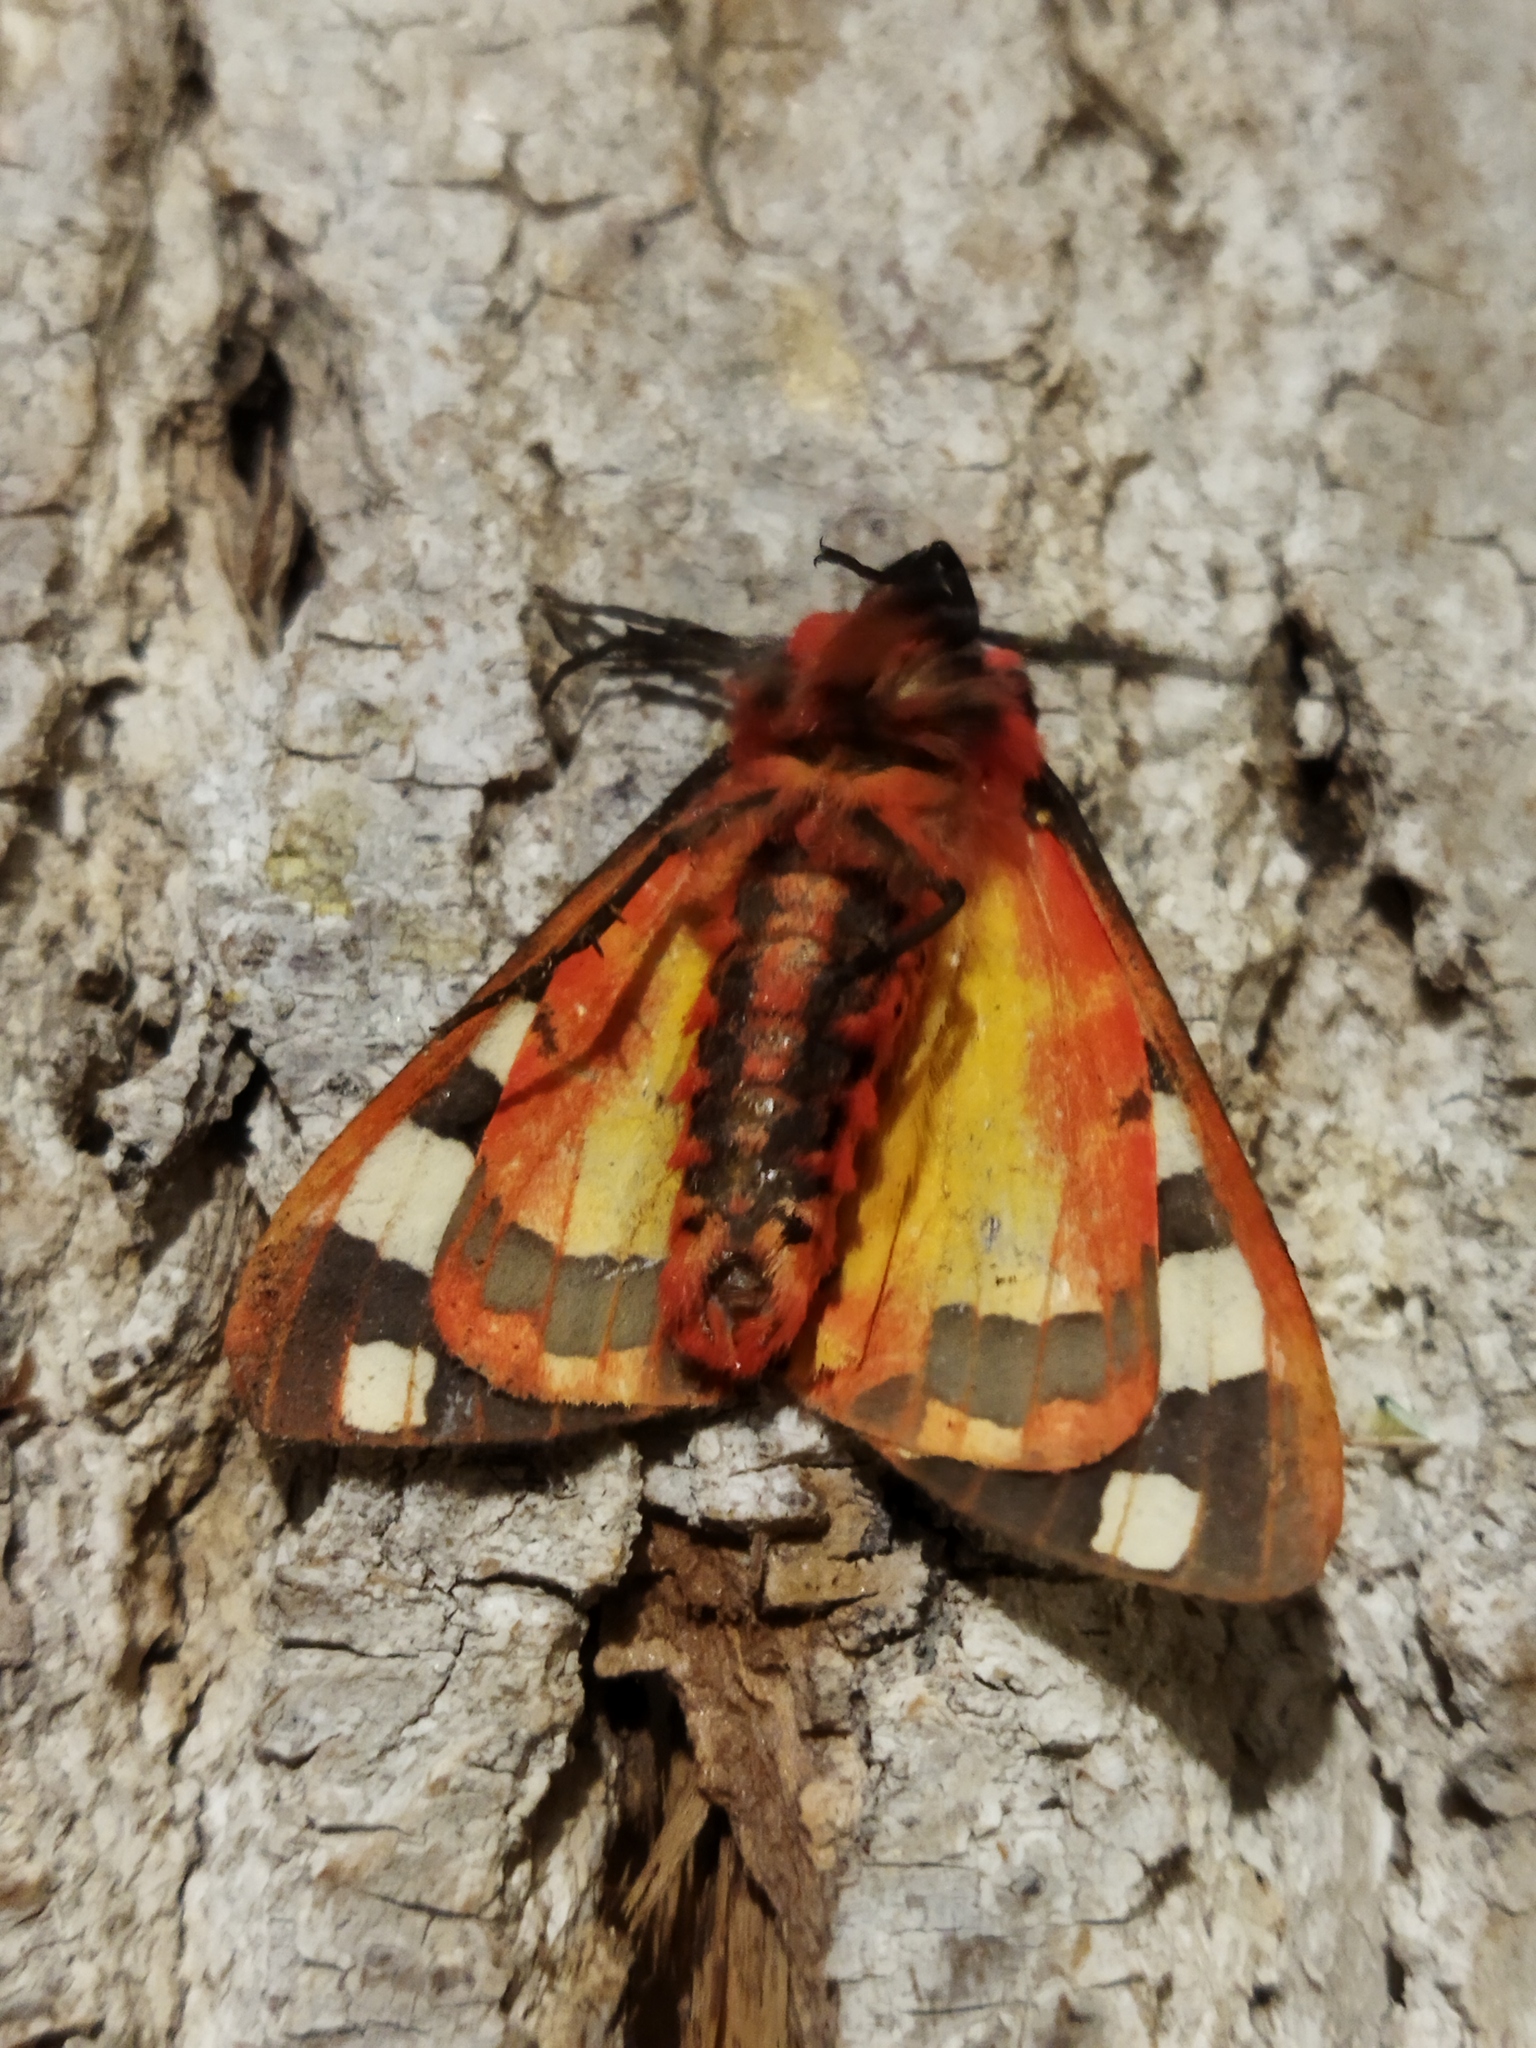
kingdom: Animalia
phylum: Arthropoda
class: Insecta
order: Lepidoptera
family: Erebidae
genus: Epicallia
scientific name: Epicallia villica
